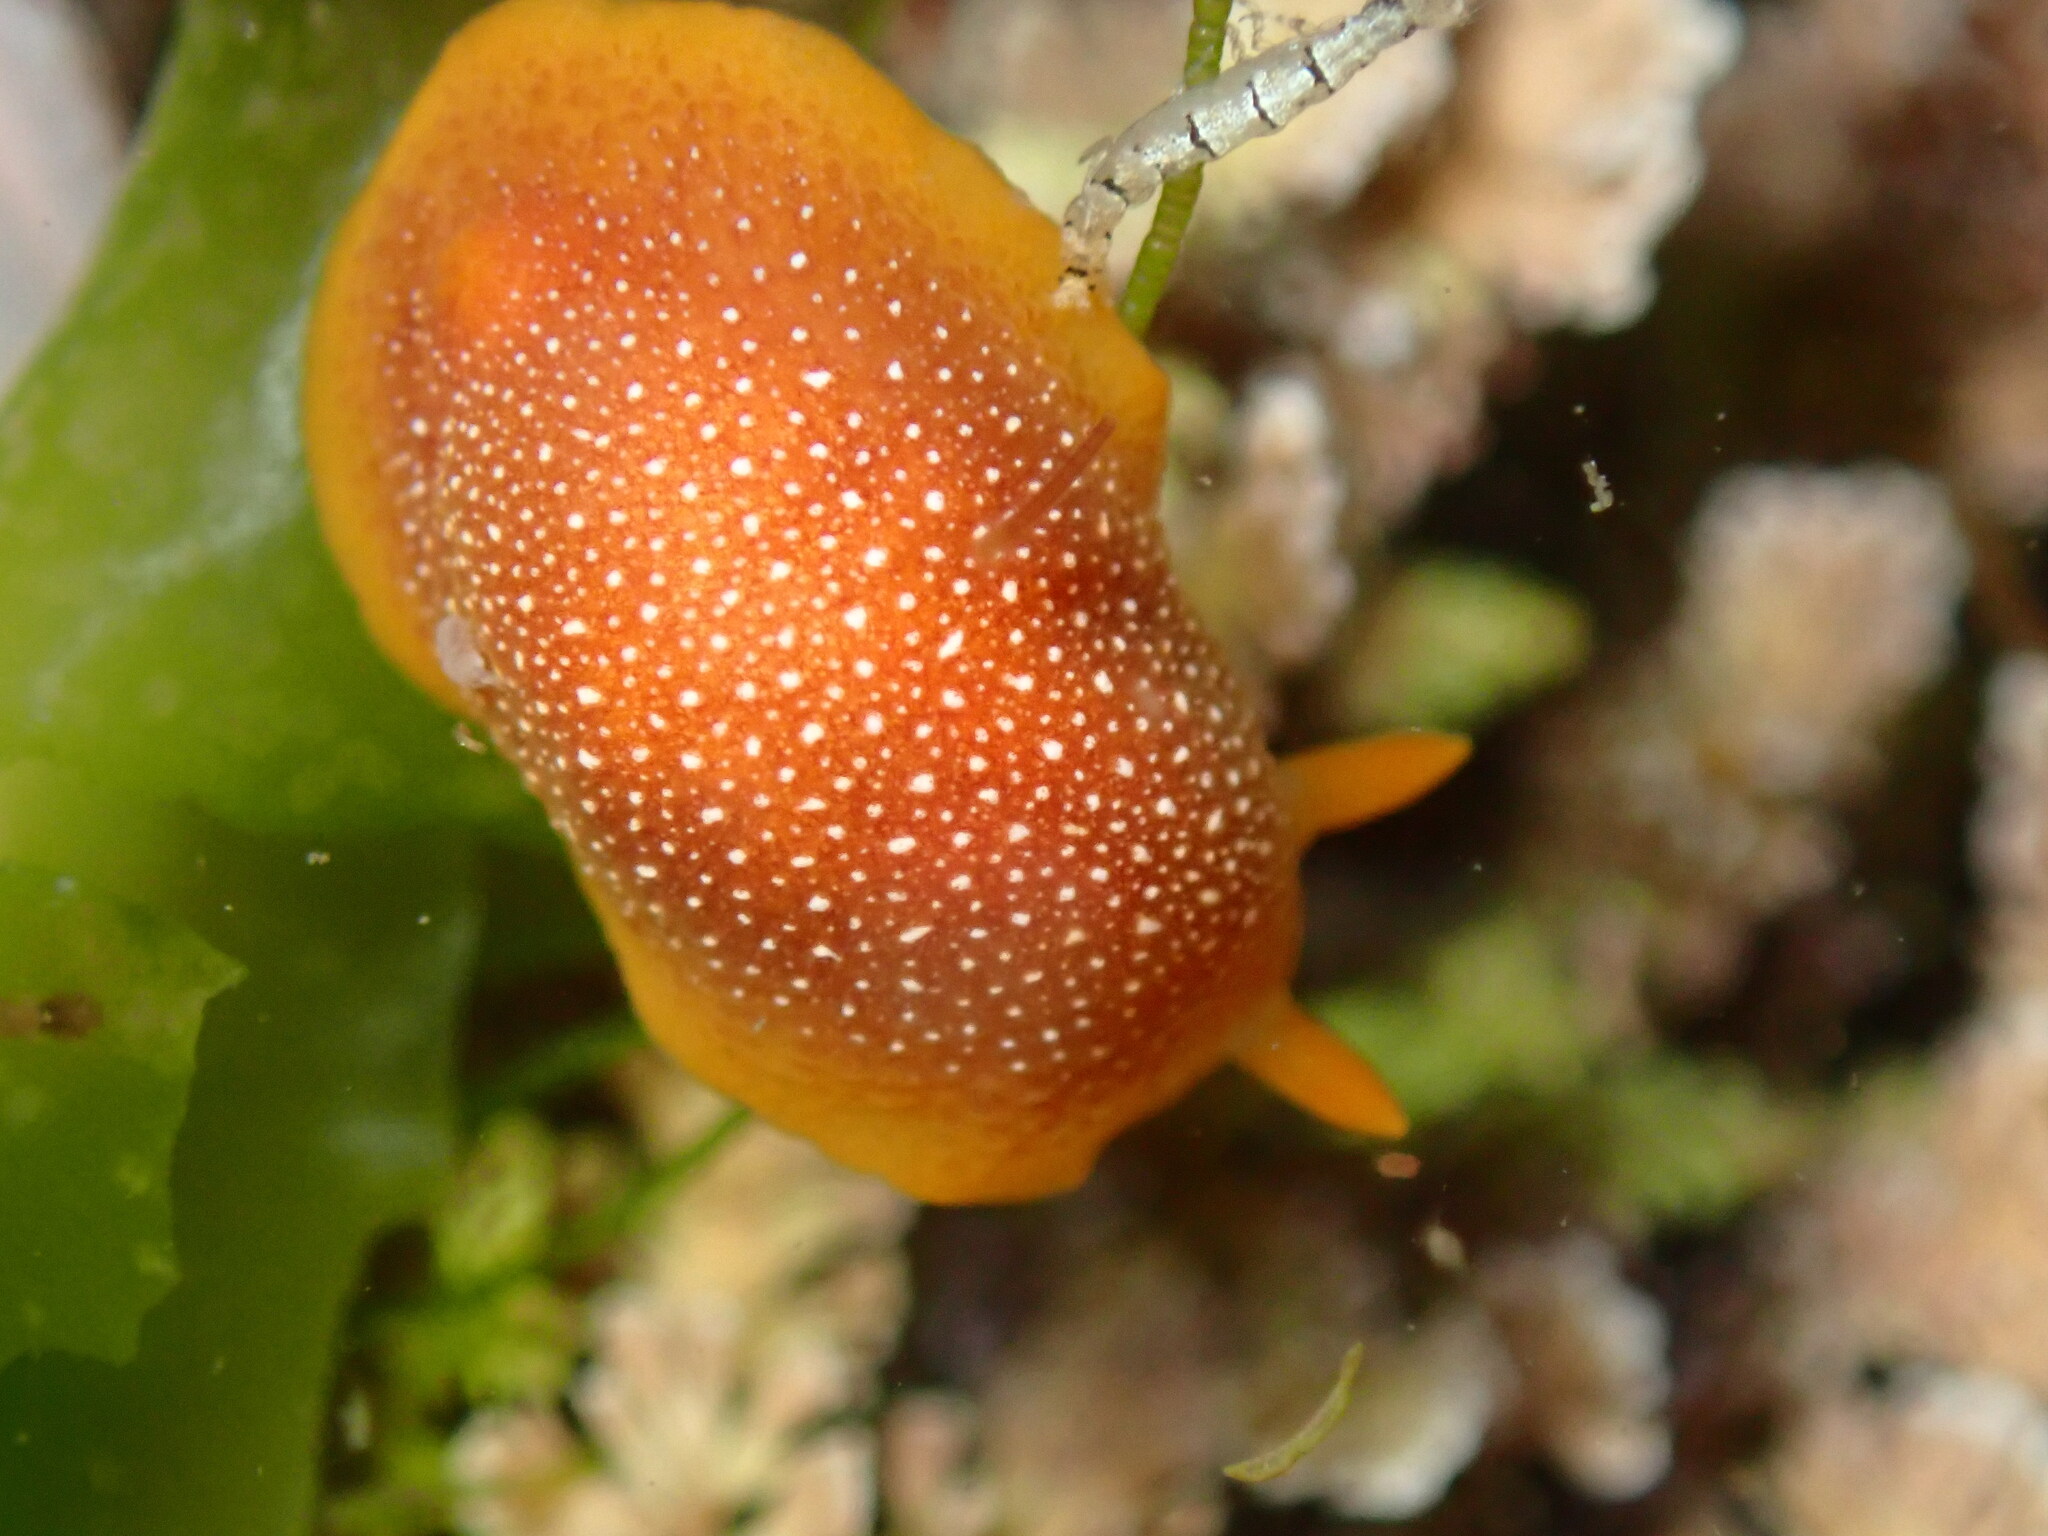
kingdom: Animalia
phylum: Mollusca
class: Gastropoda
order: Nudibranchia
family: Dendrodorididae
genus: Doriopsilla
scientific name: Doriopsilla gemela
